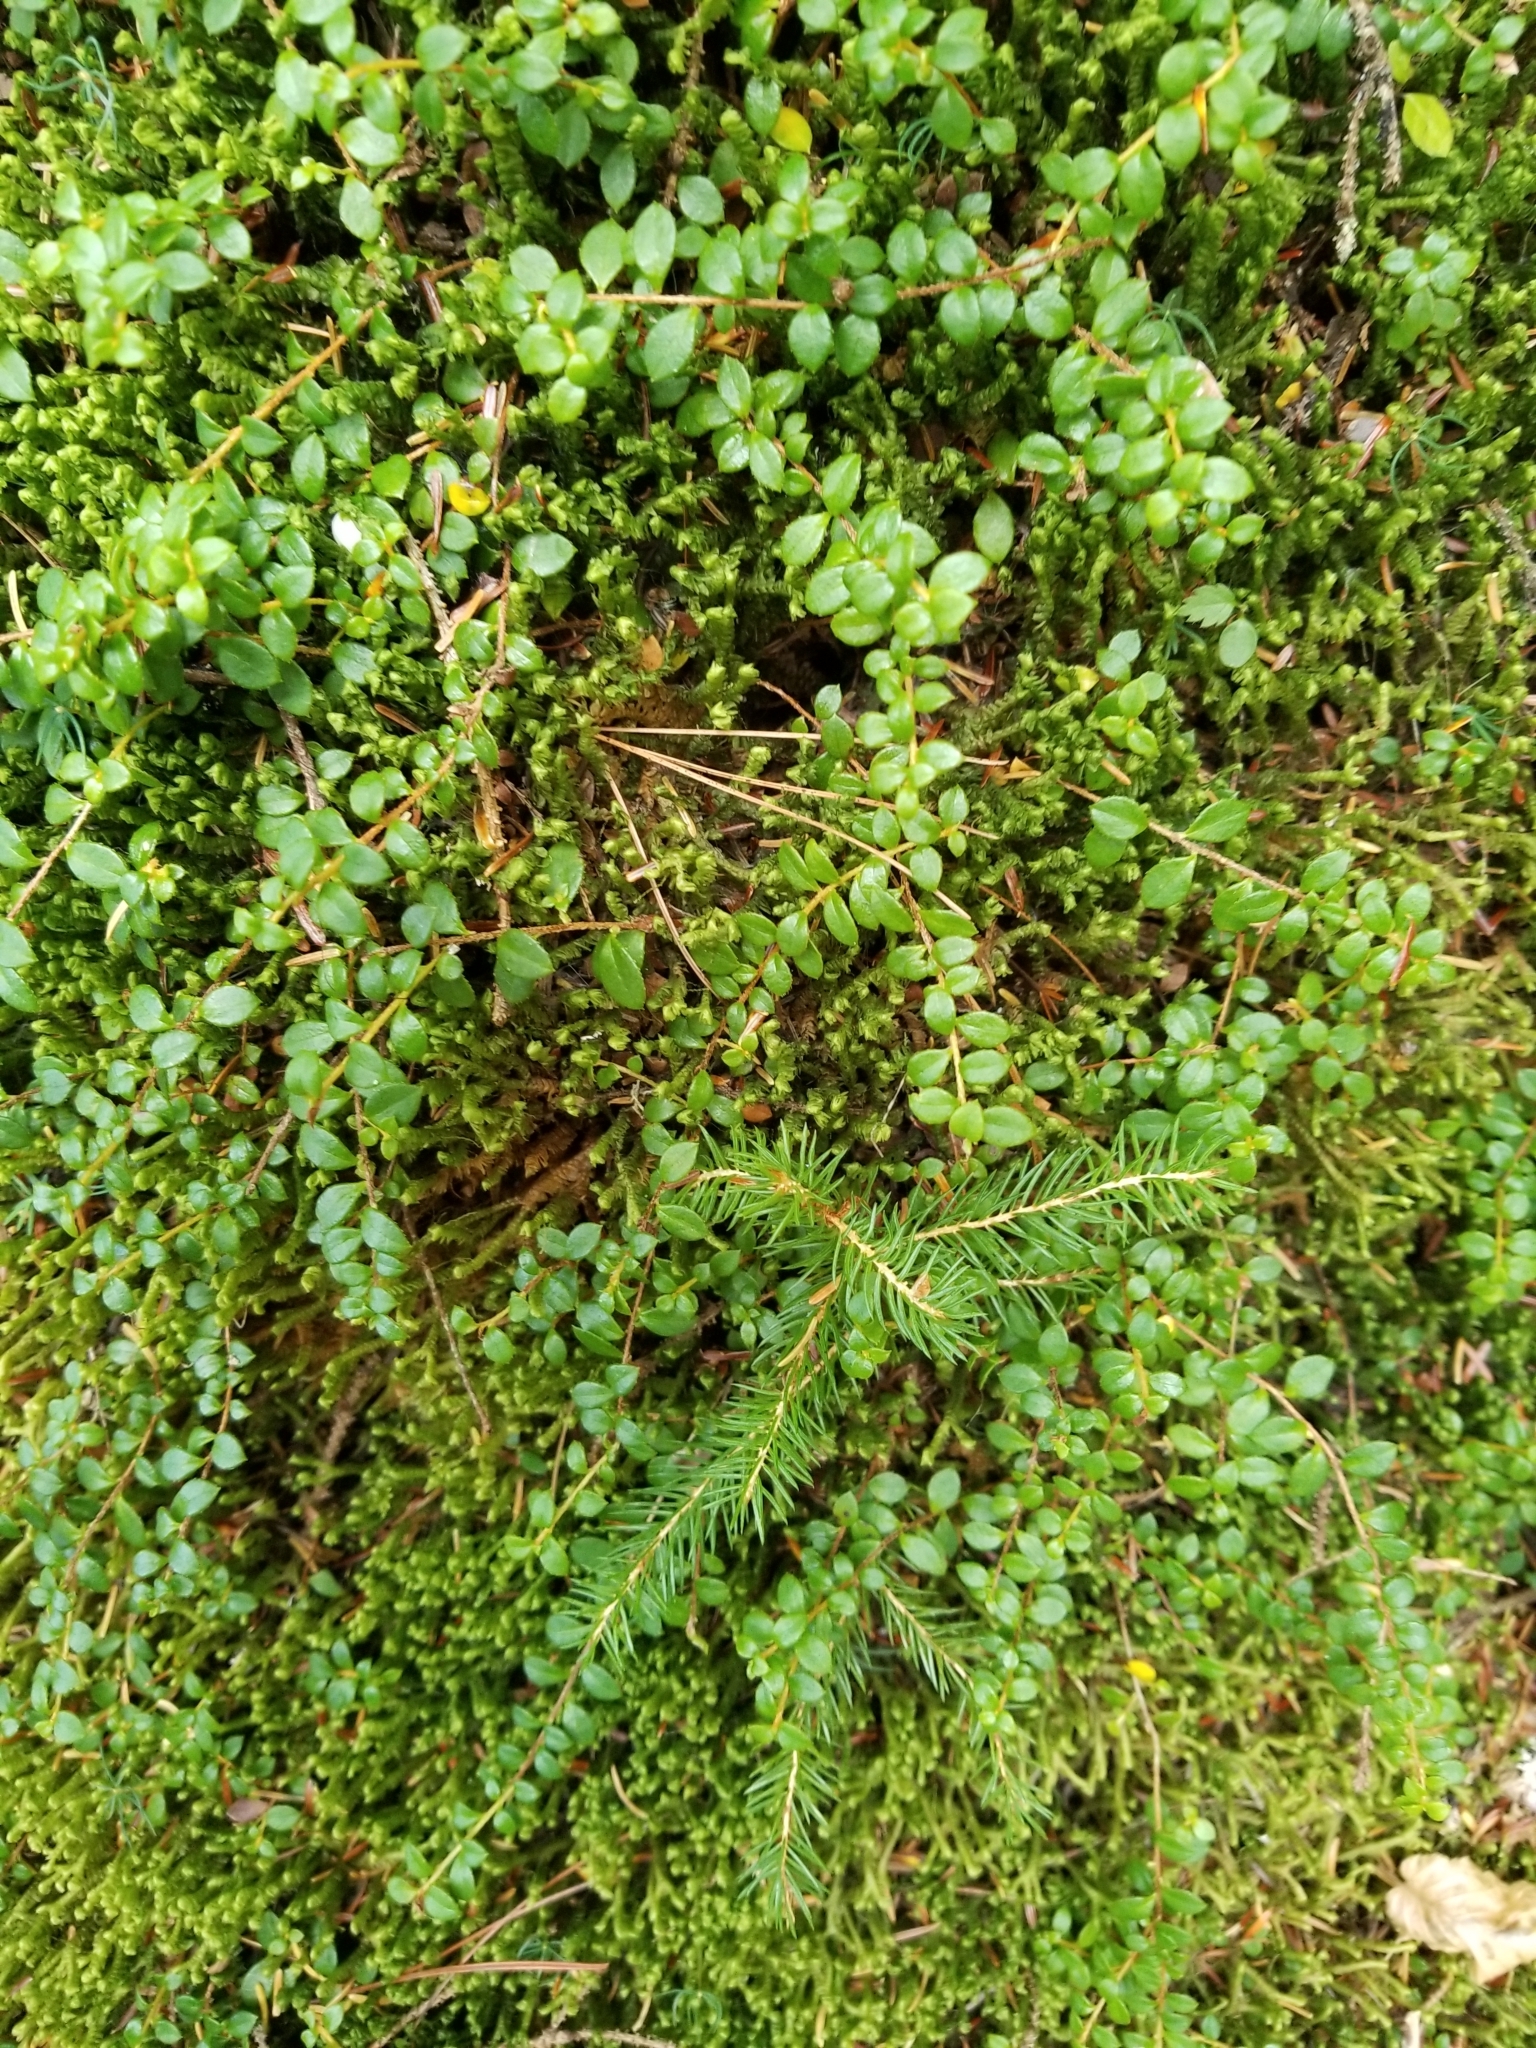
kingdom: Plantae
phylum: Tracheophyta
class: Magnoliopsida
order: Ericales
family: Ericaceae
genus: Gaultheria
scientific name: Gaultheria hispidula
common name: Cancer wintergreen
